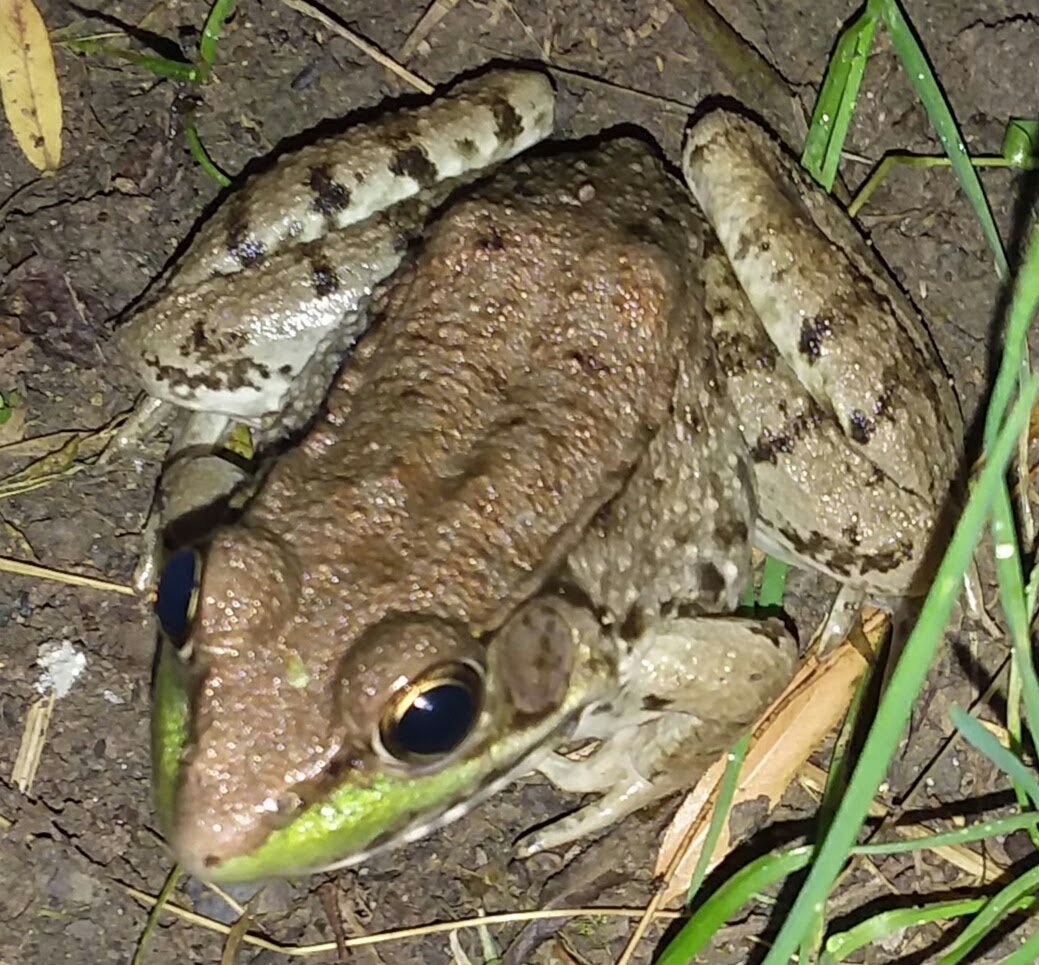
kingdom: Animalia
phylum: Chordata
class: Amphibia
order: Anura
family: Ranidae
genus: Lithobates
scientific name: Lithobates clamitans
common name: Green frog
